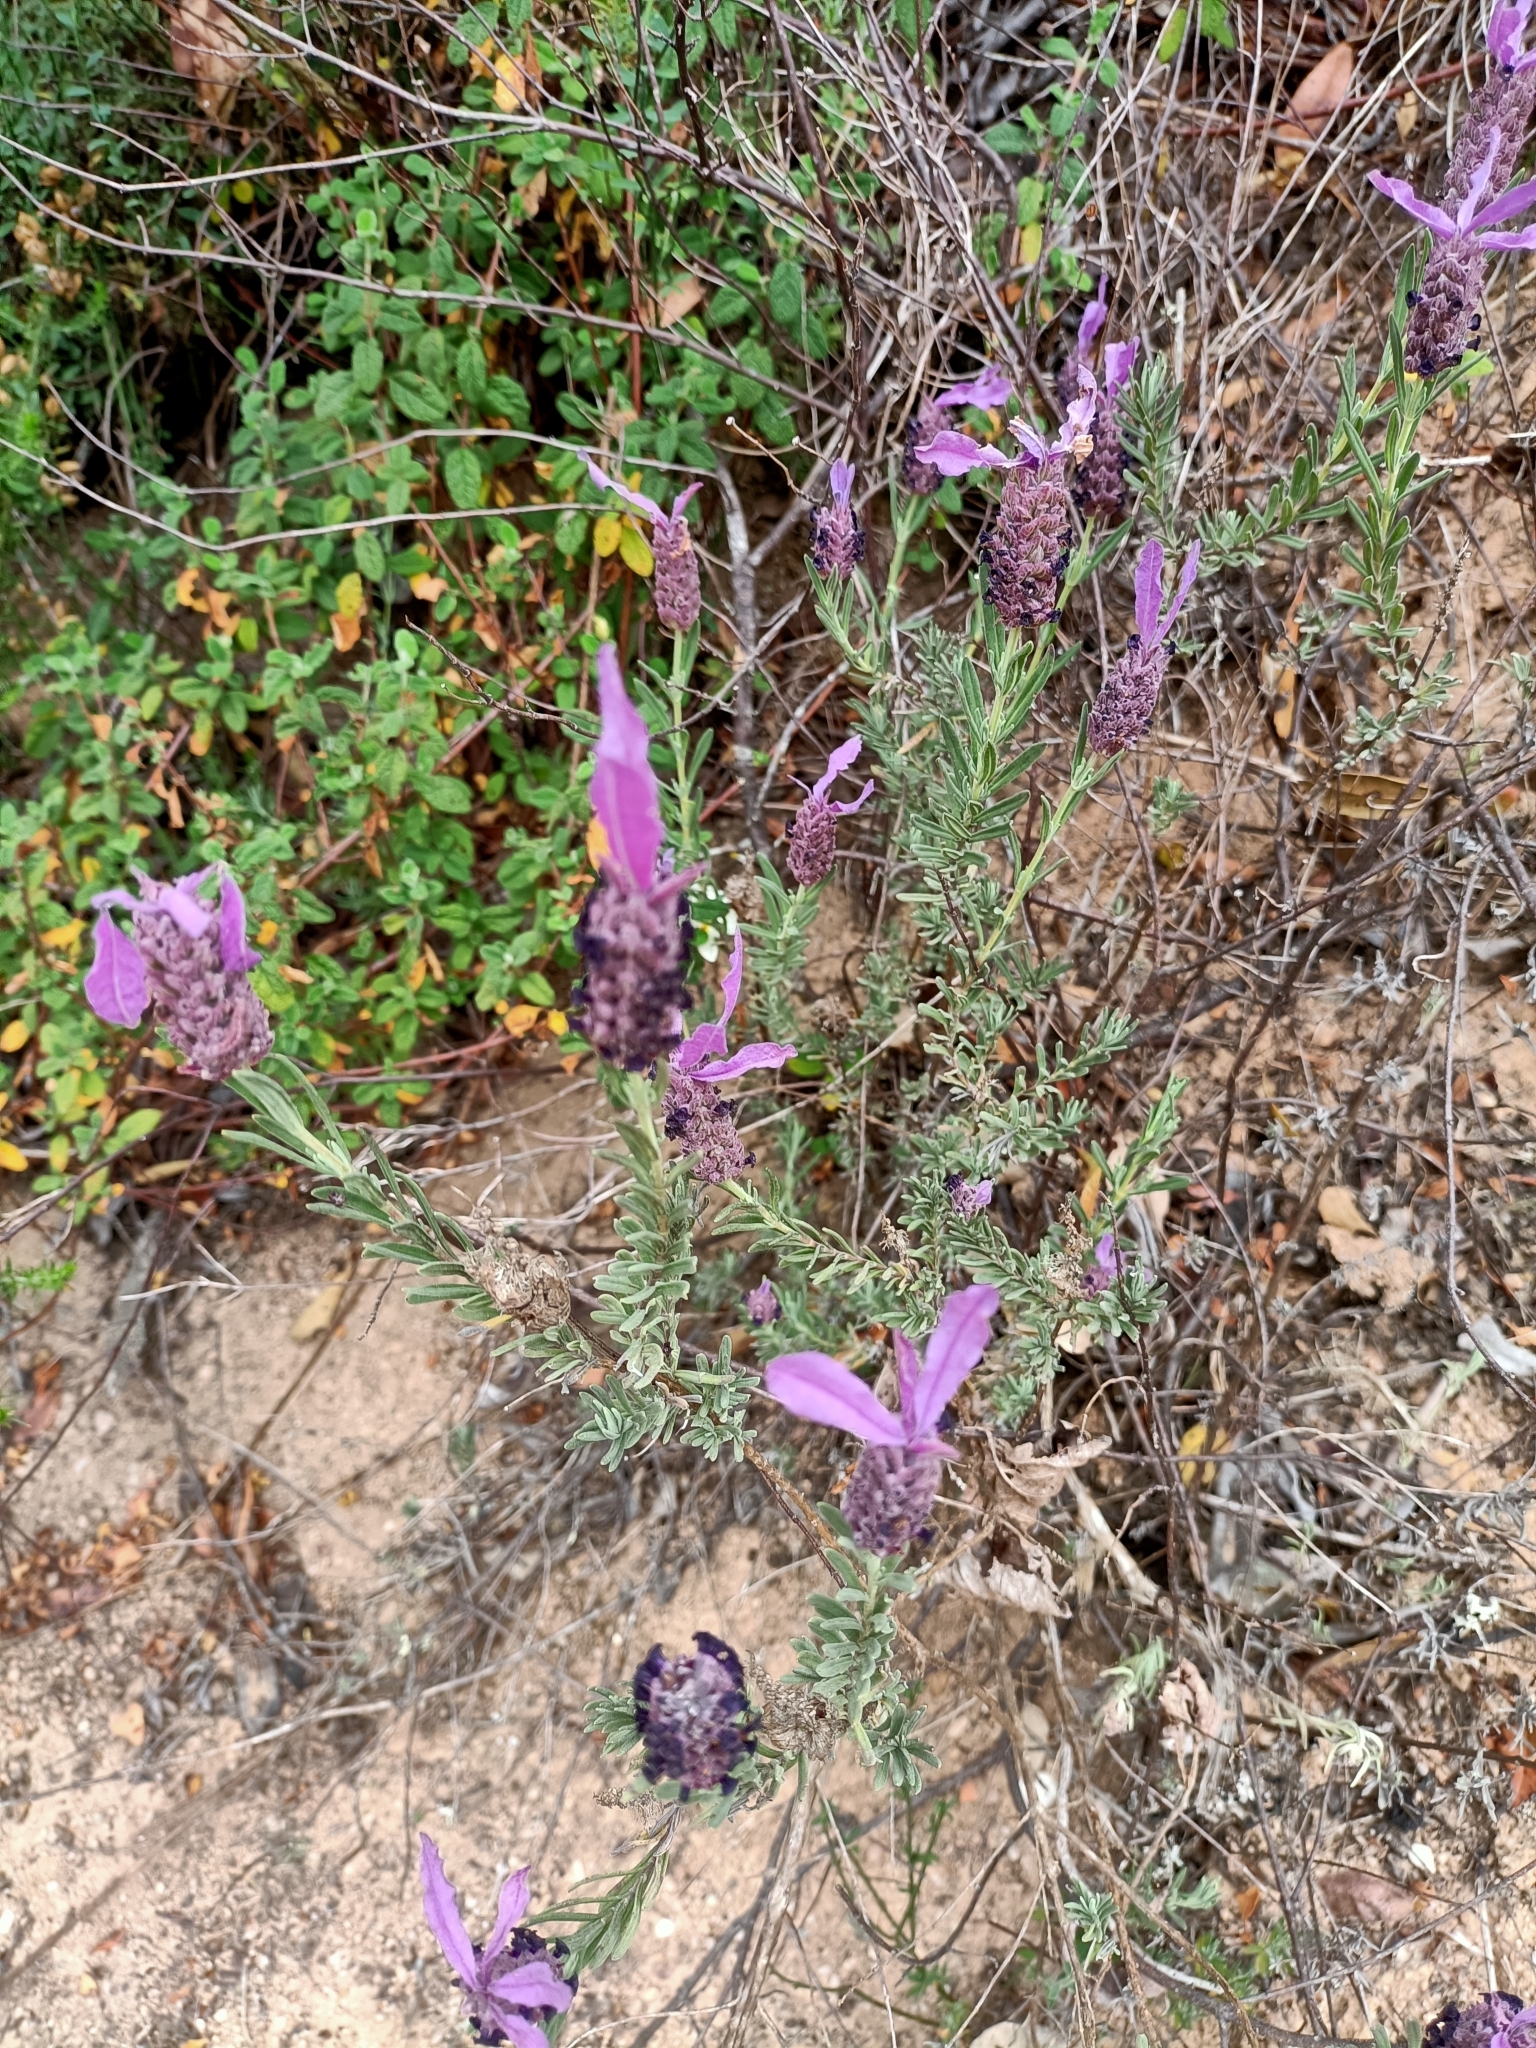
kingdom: Plantae
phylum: Tracheophyta
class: Magnoliopsida
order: Lamiales
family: Lamiaceae
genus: Lavandula
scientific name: Lavandula stoechas
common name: French lavender
